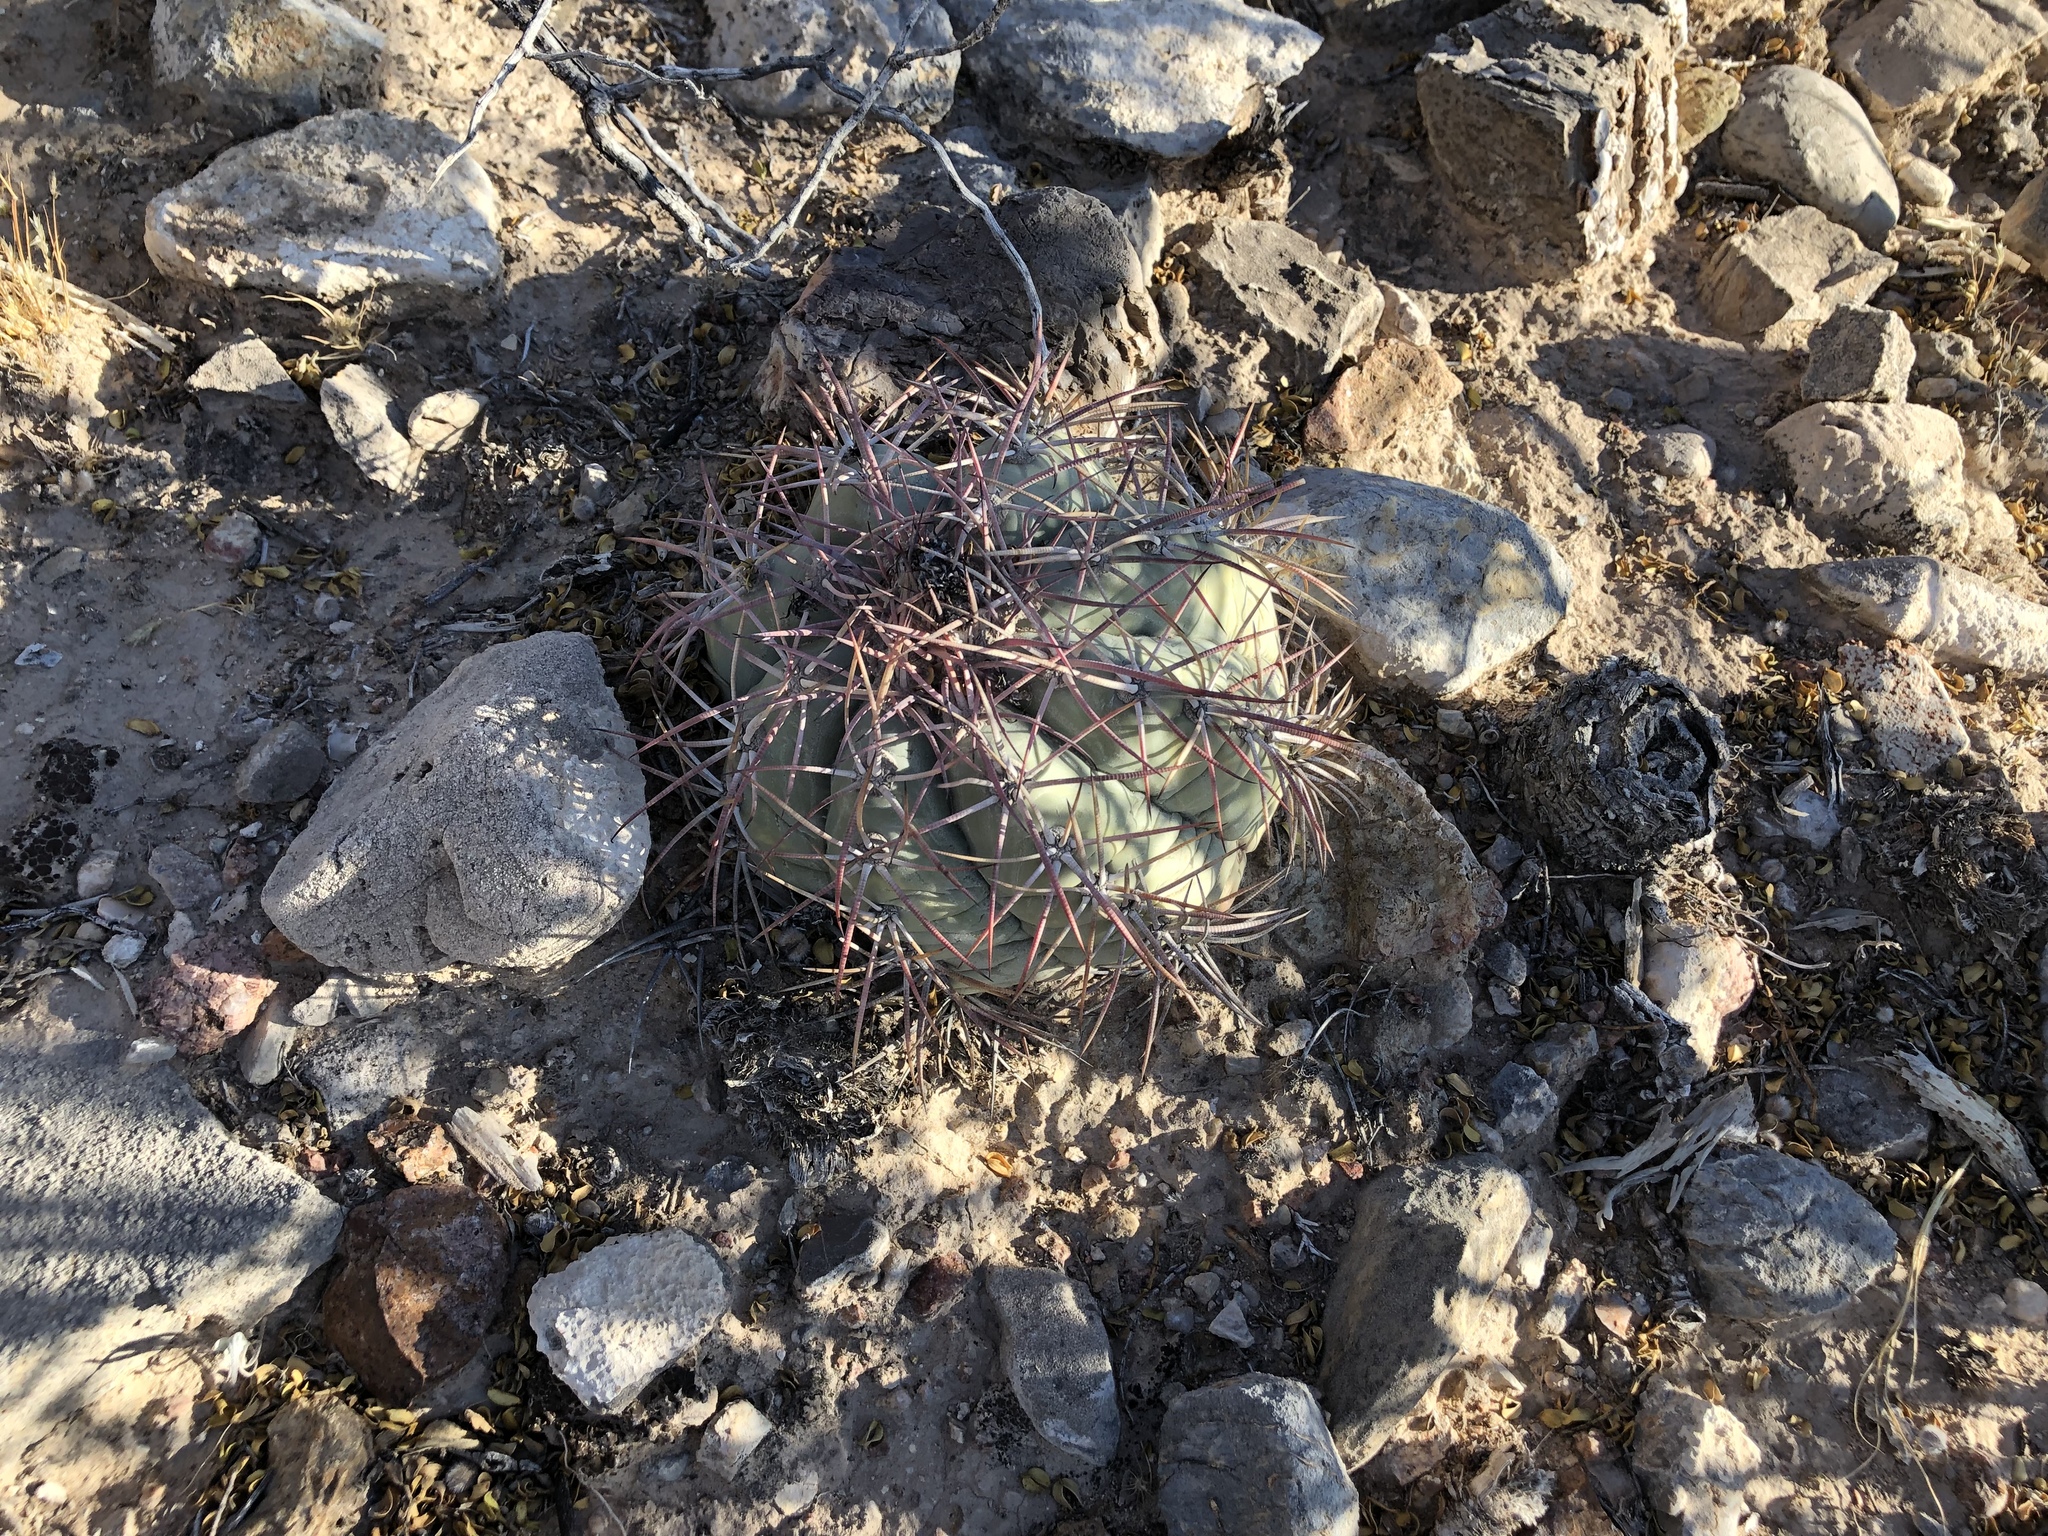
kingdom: Plantae
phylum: Tracheophyta
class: Magnoliopsida
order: Caryophyllales
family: Cactaceae
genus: Echinocactus
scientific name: Echinocactus horizonthalonius
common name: Devilshead
